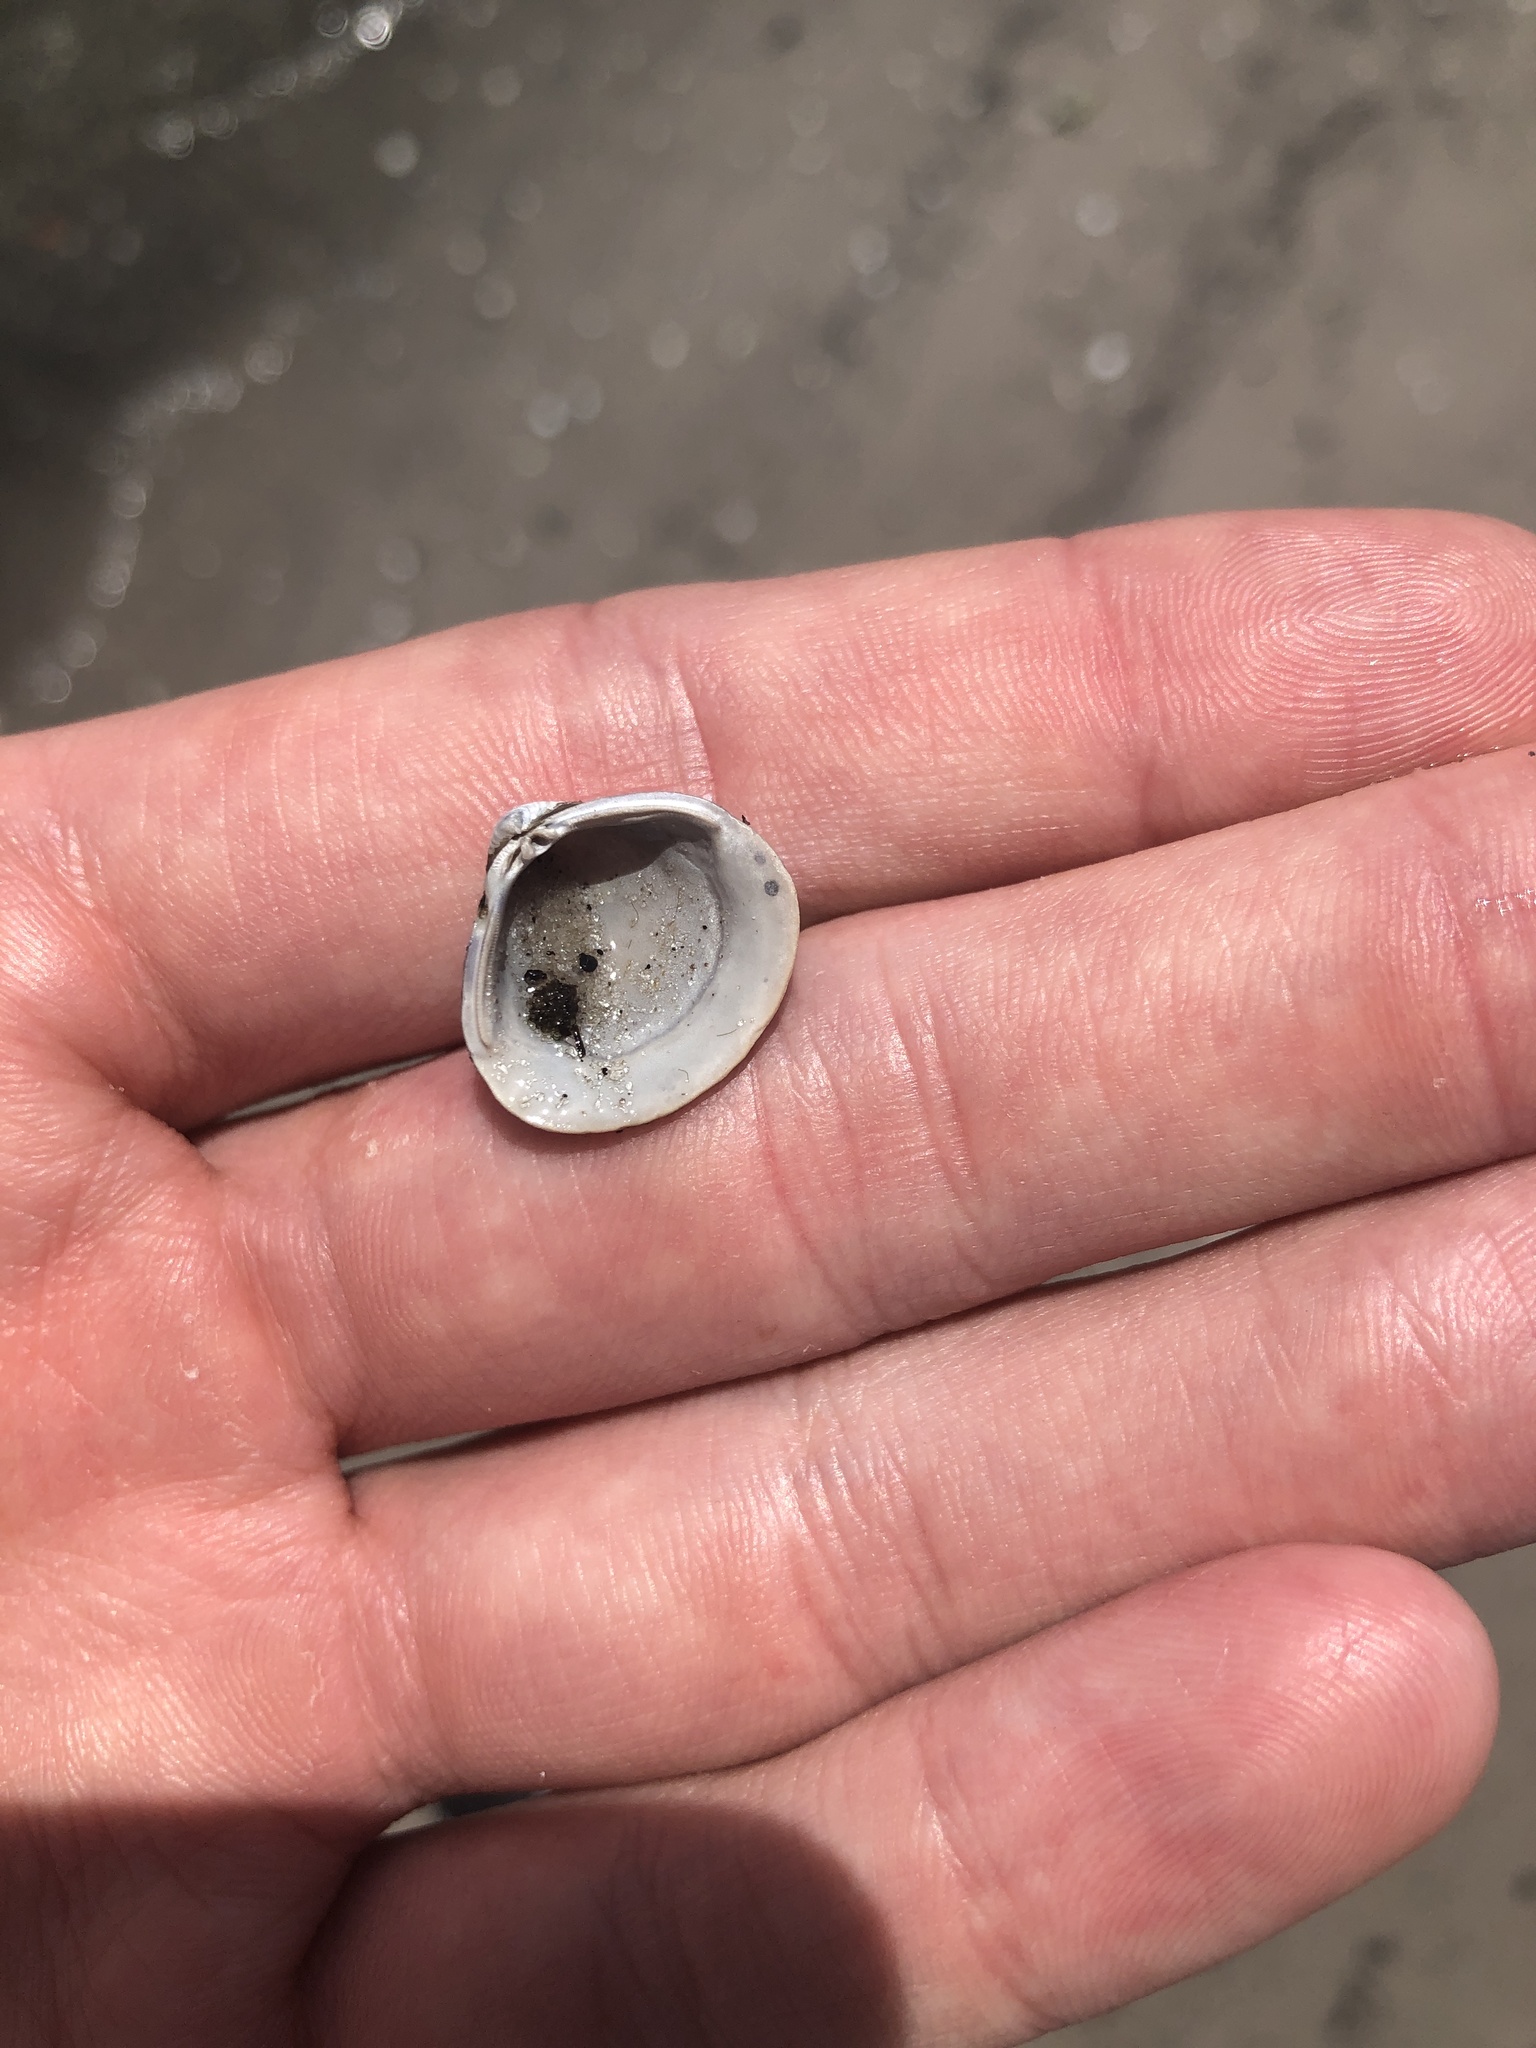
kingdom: Animalia
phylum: Mollusca
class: Bivalvia
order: Venerida
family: Cyrenidae
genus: Corbicula
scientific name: Corbicula fluminea
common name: Asian clam
